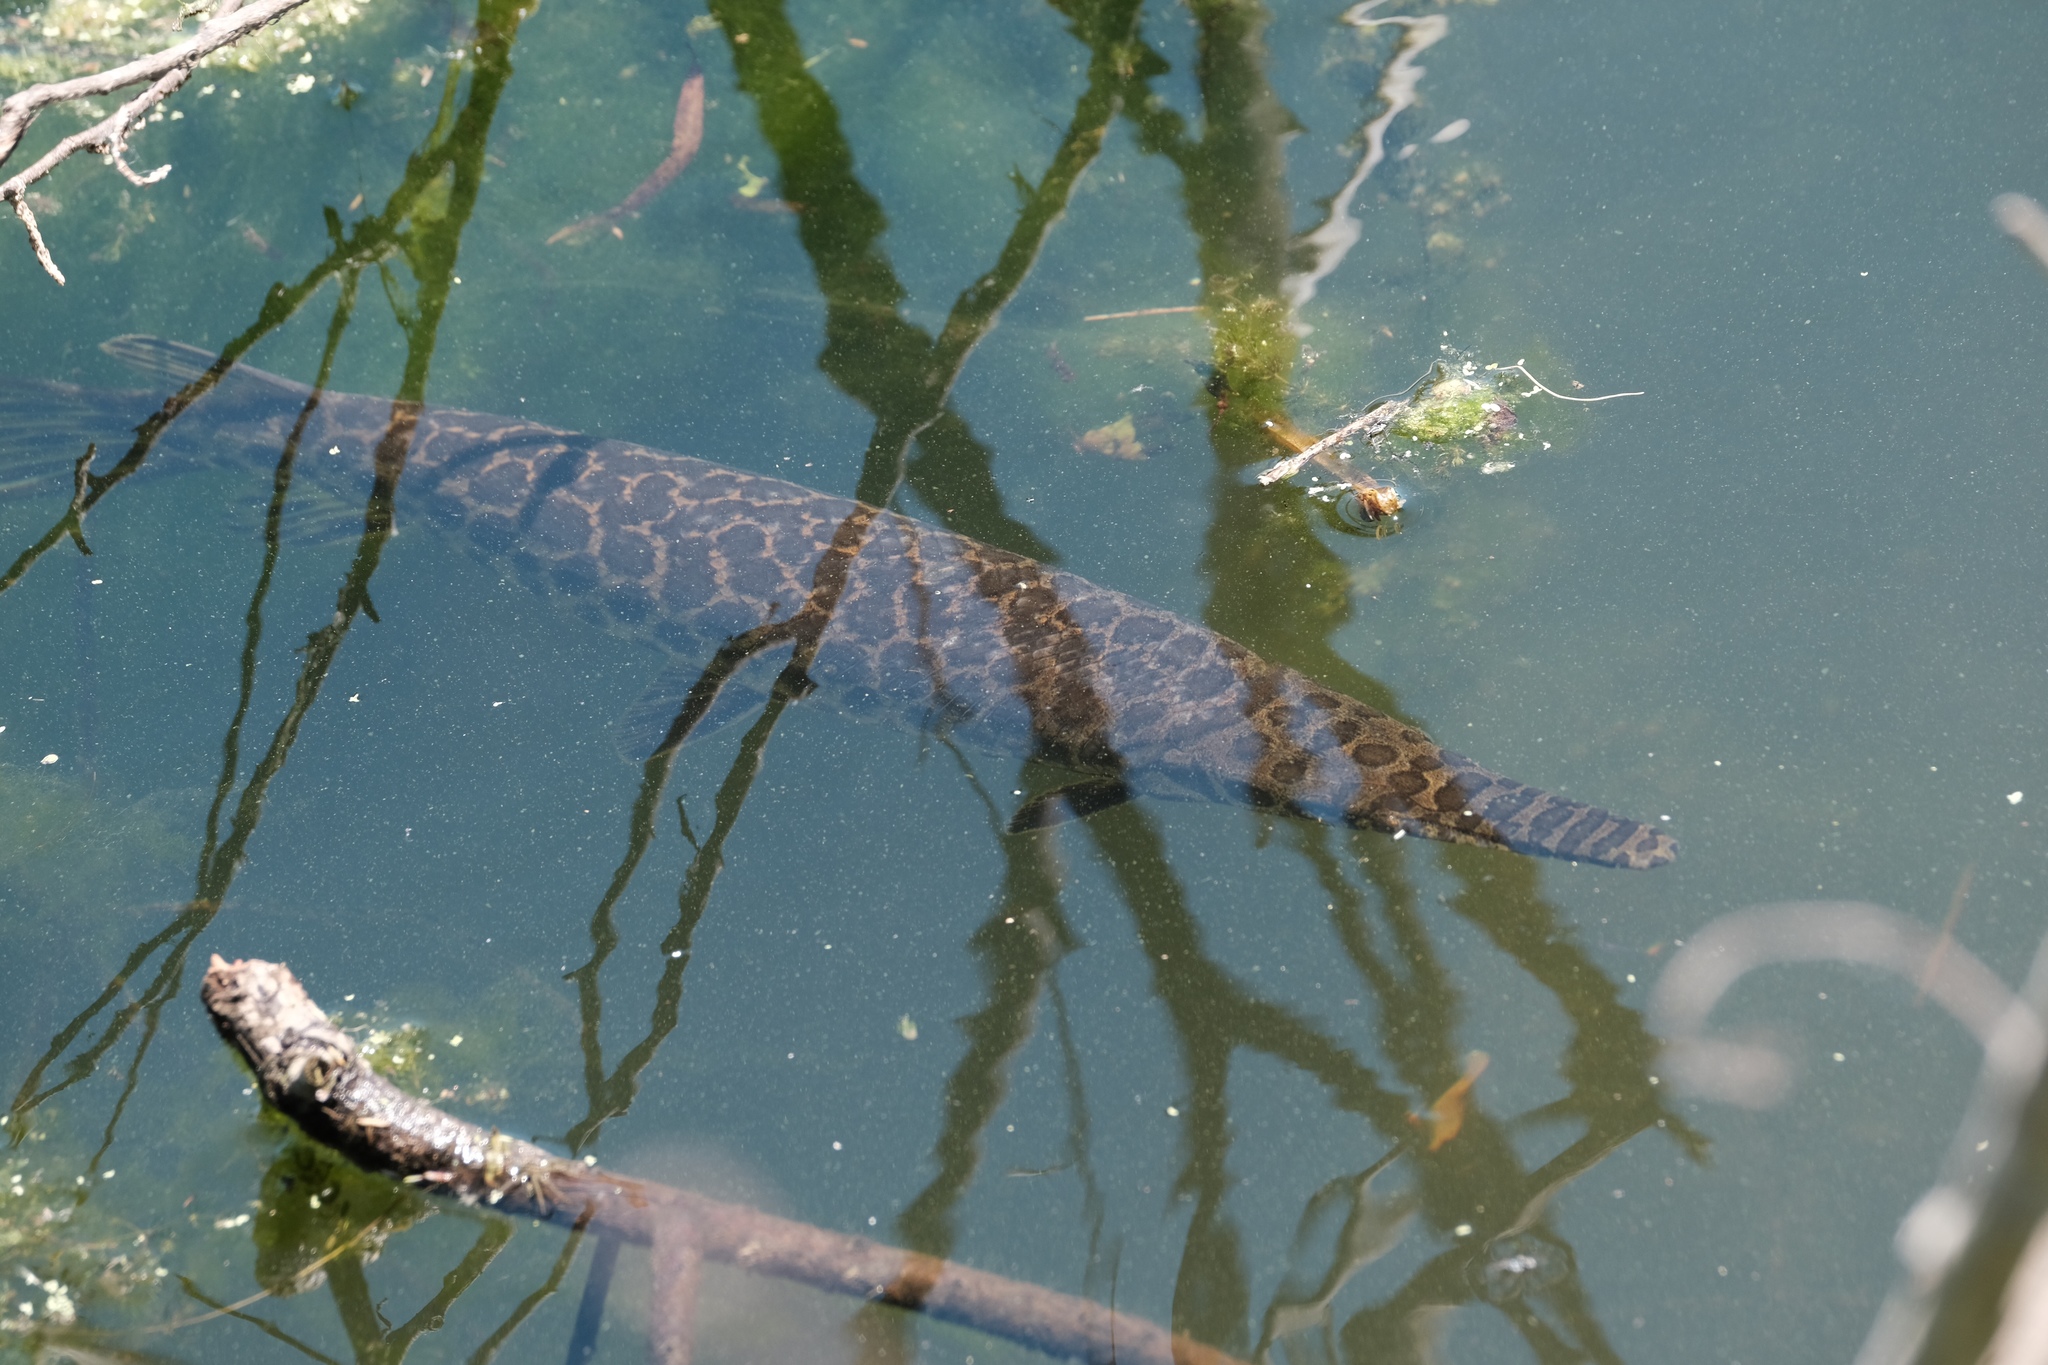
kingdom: Animalia
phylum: Chordata
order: Lepisosteiformes
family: Lepisosteidae
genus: Lepisosteus
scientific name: Lepisosteus oculatus
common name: Spotted gar
